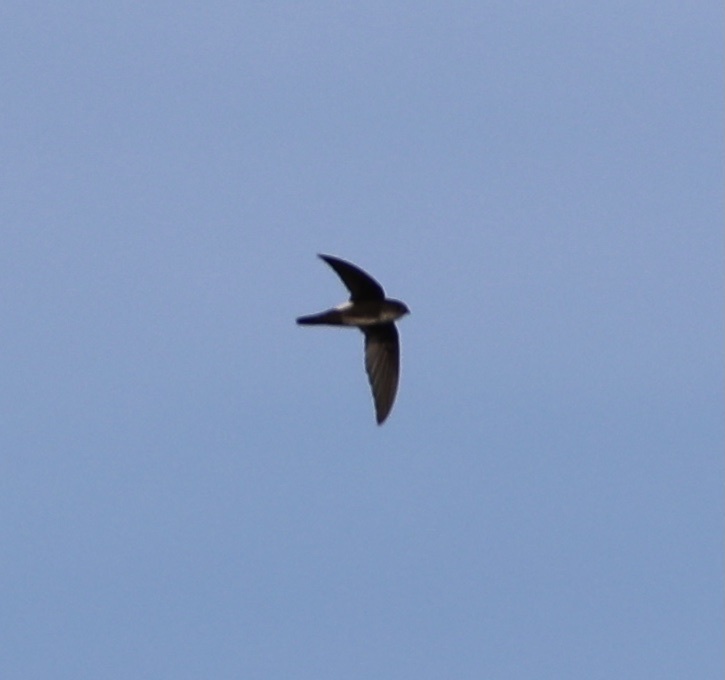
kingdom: Animalia
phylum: Chordata
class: Aves
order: Apodiformes
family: Apodidae
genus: Tachornis
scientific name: Tachornis phoenicobia
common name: Antillean palm swift
